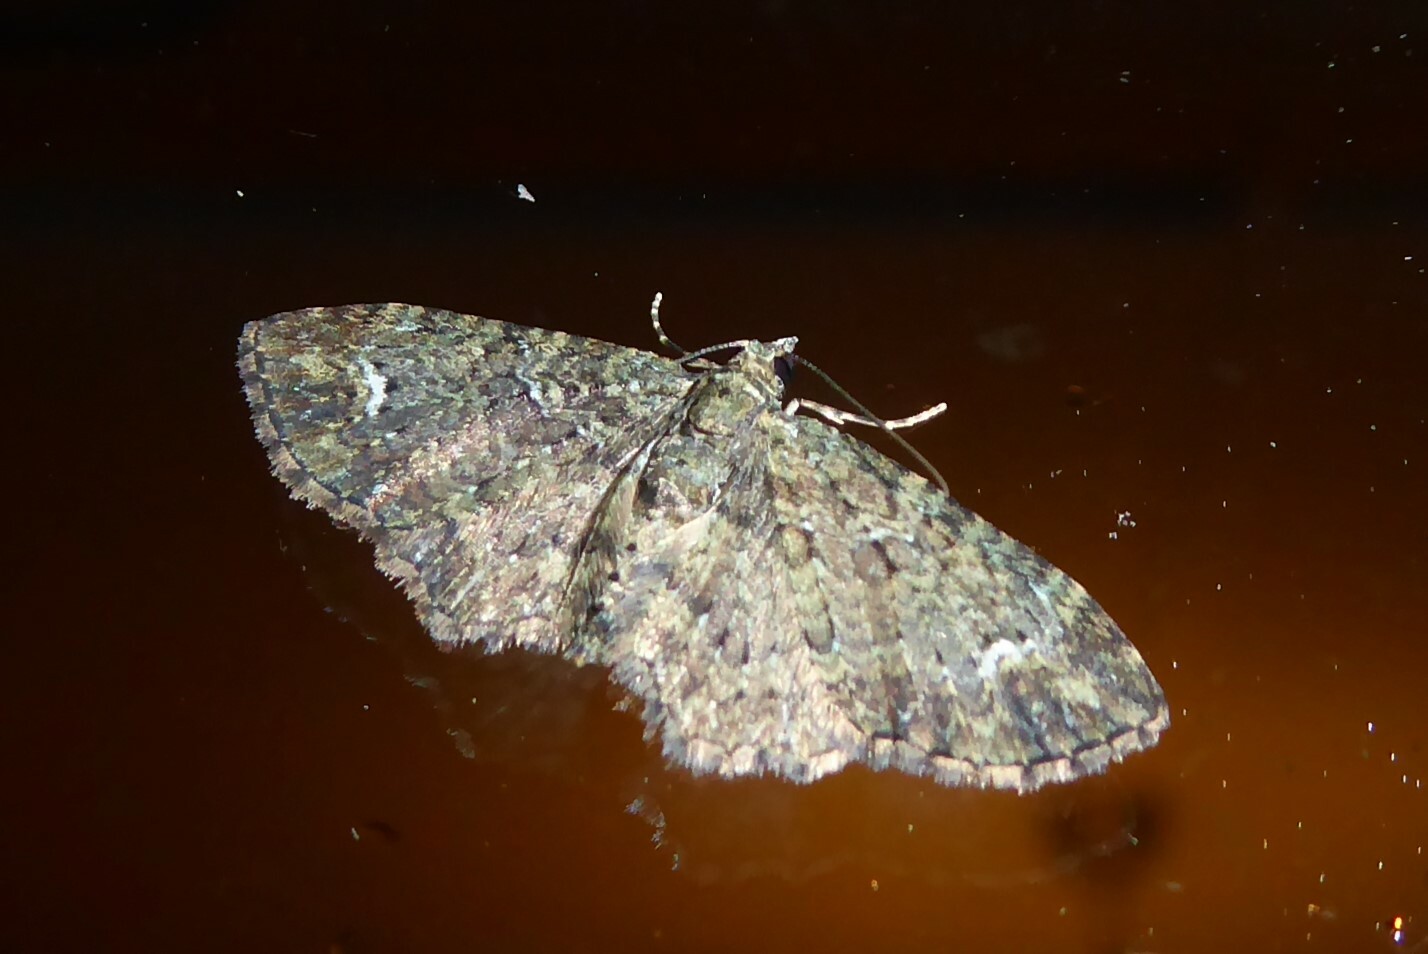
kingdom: Animalia
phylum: Arthropoda
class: Insecta
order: Lepidoptera
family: Geometridae
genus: Pasiphilodes
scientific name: Pasiphilodes testulata
